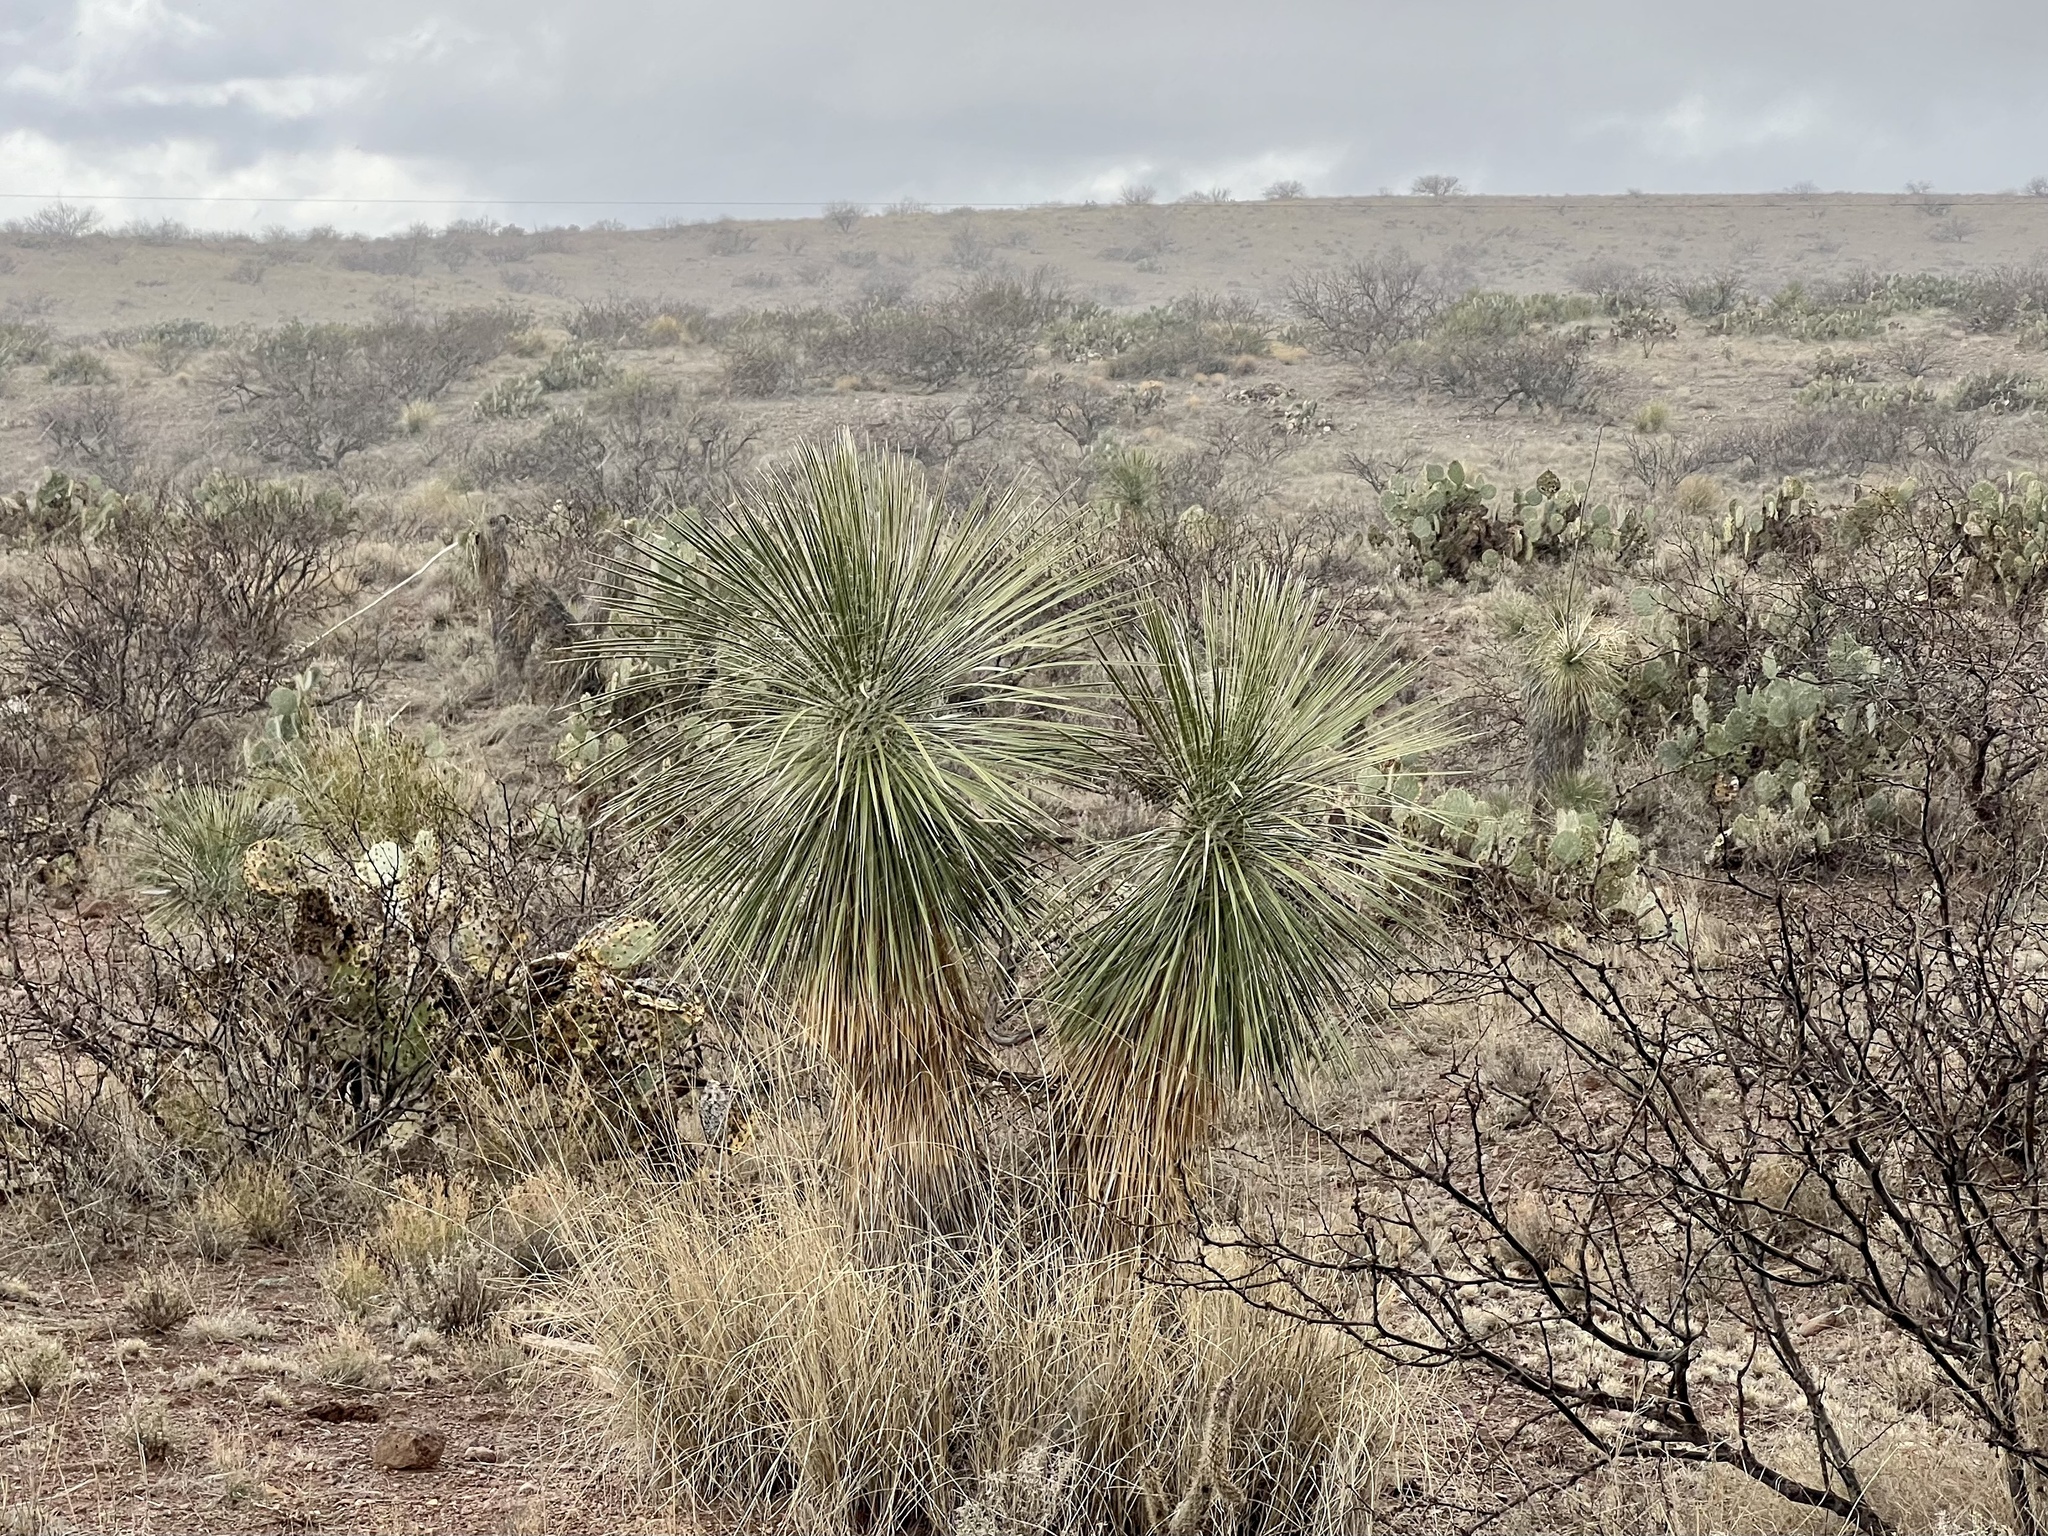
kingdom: Plantae
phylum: Tracheophyta
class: Liliopsida
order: Asparagales
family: Asparagaceae
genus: Yucca
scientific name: Yucca elata
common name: Palmella
